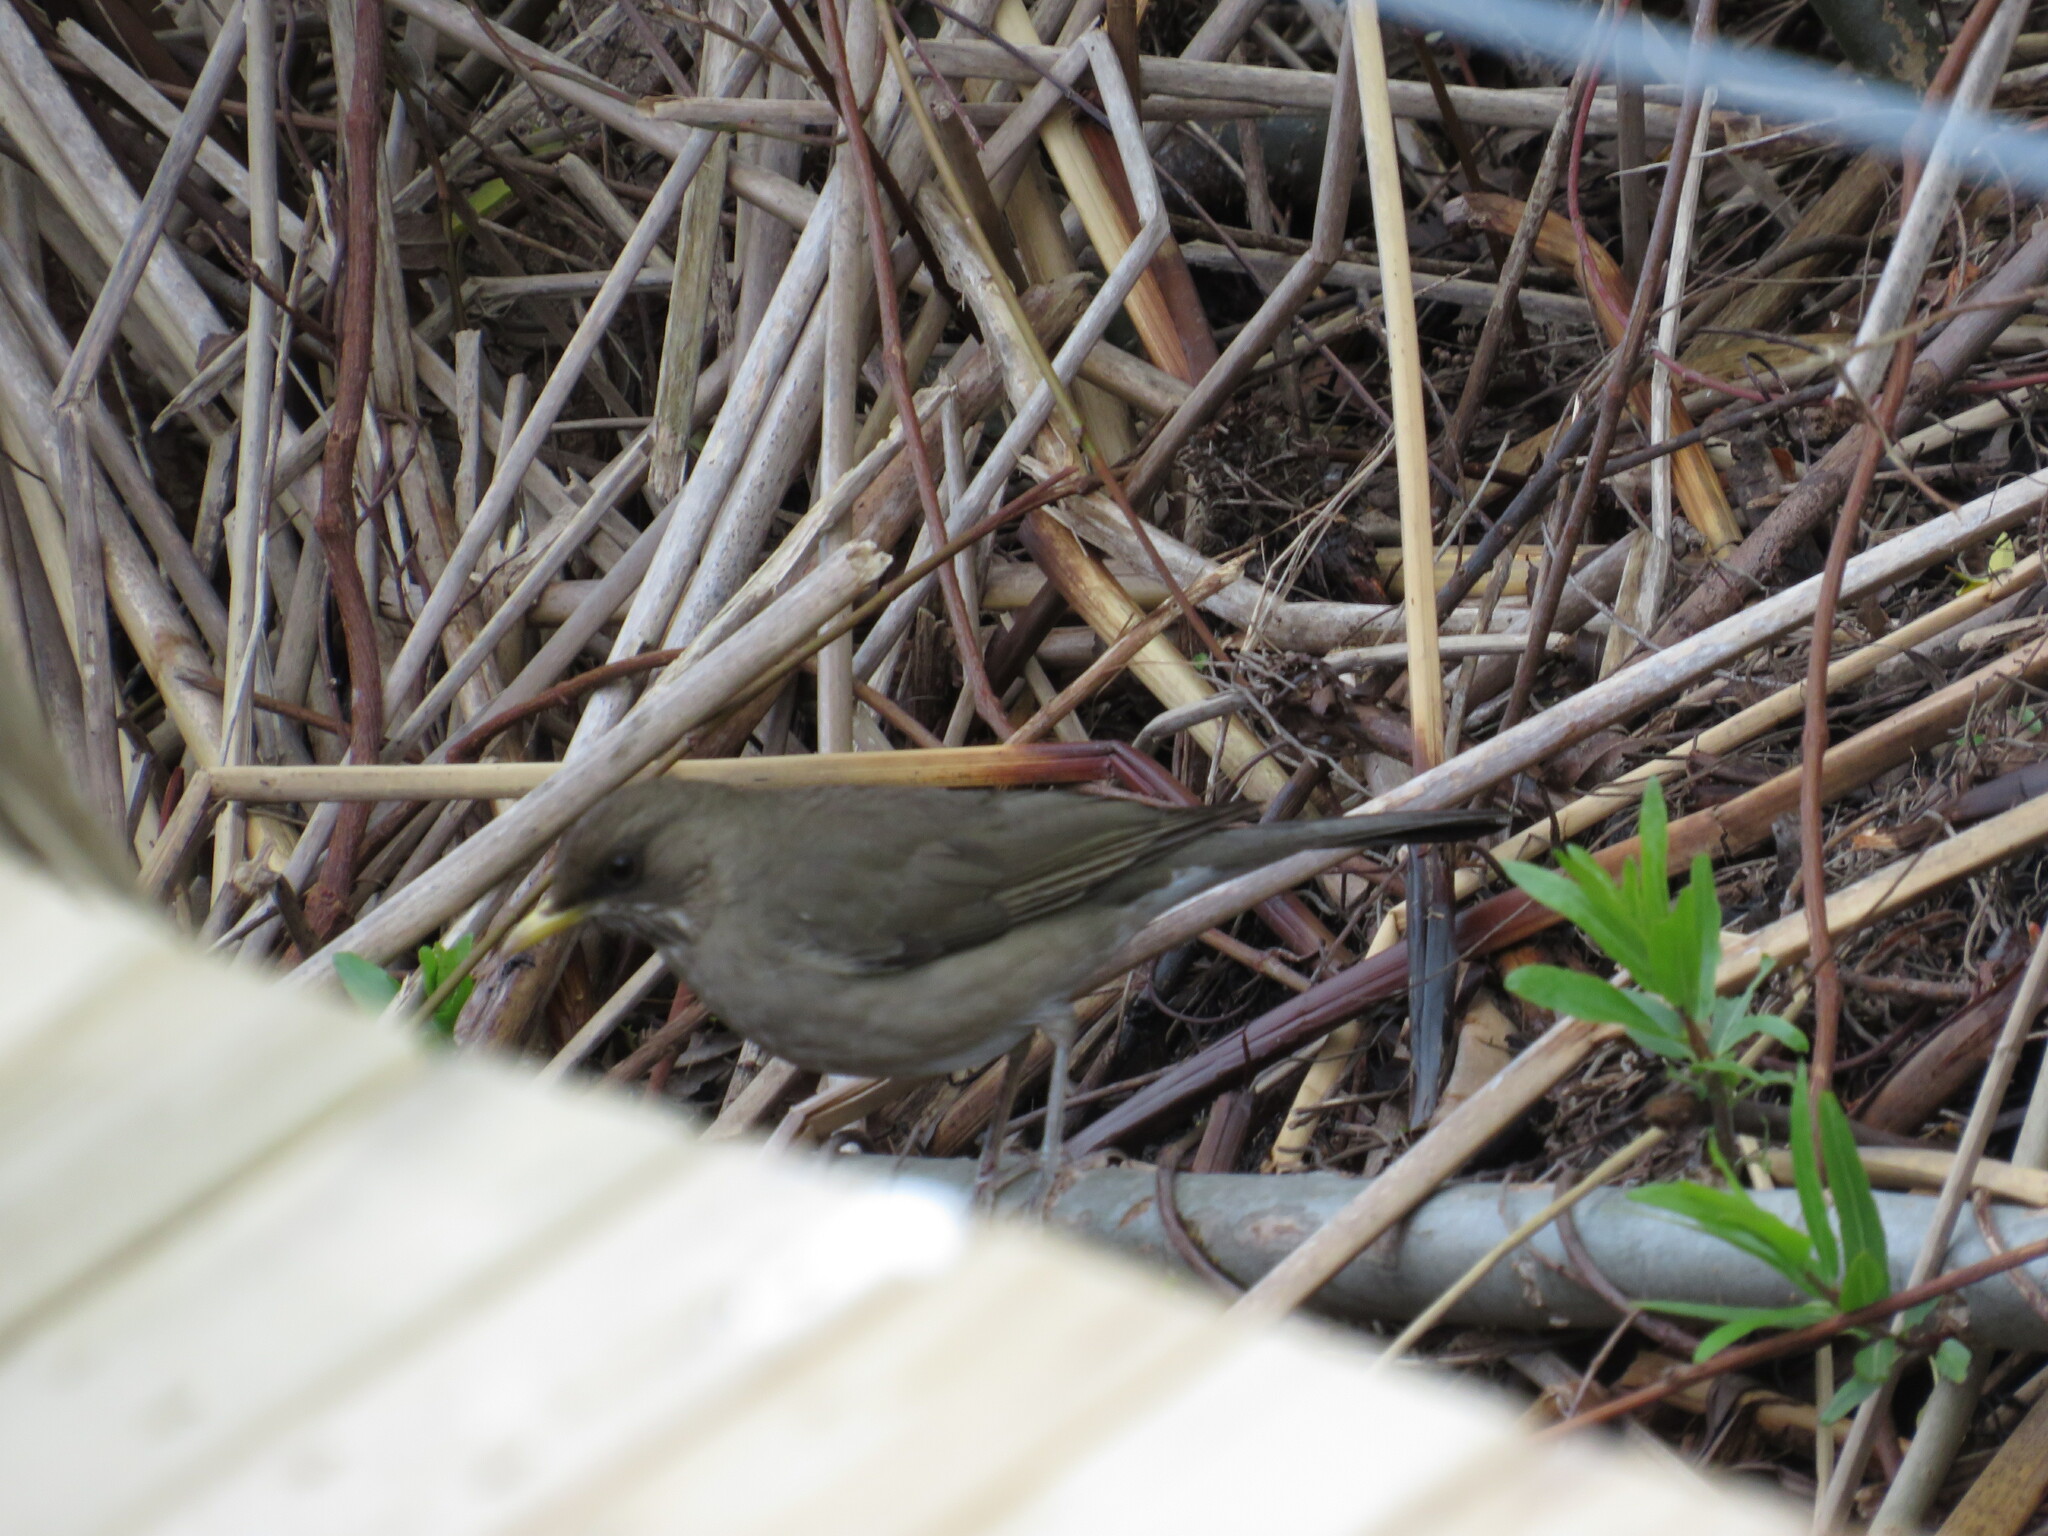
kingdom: Animalia
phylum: Chordata
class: Aves
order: Passeriformes
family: Turdidae
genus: Turdus
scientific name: Turdus amaurochalinus
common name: Creamy-bellied thrush
